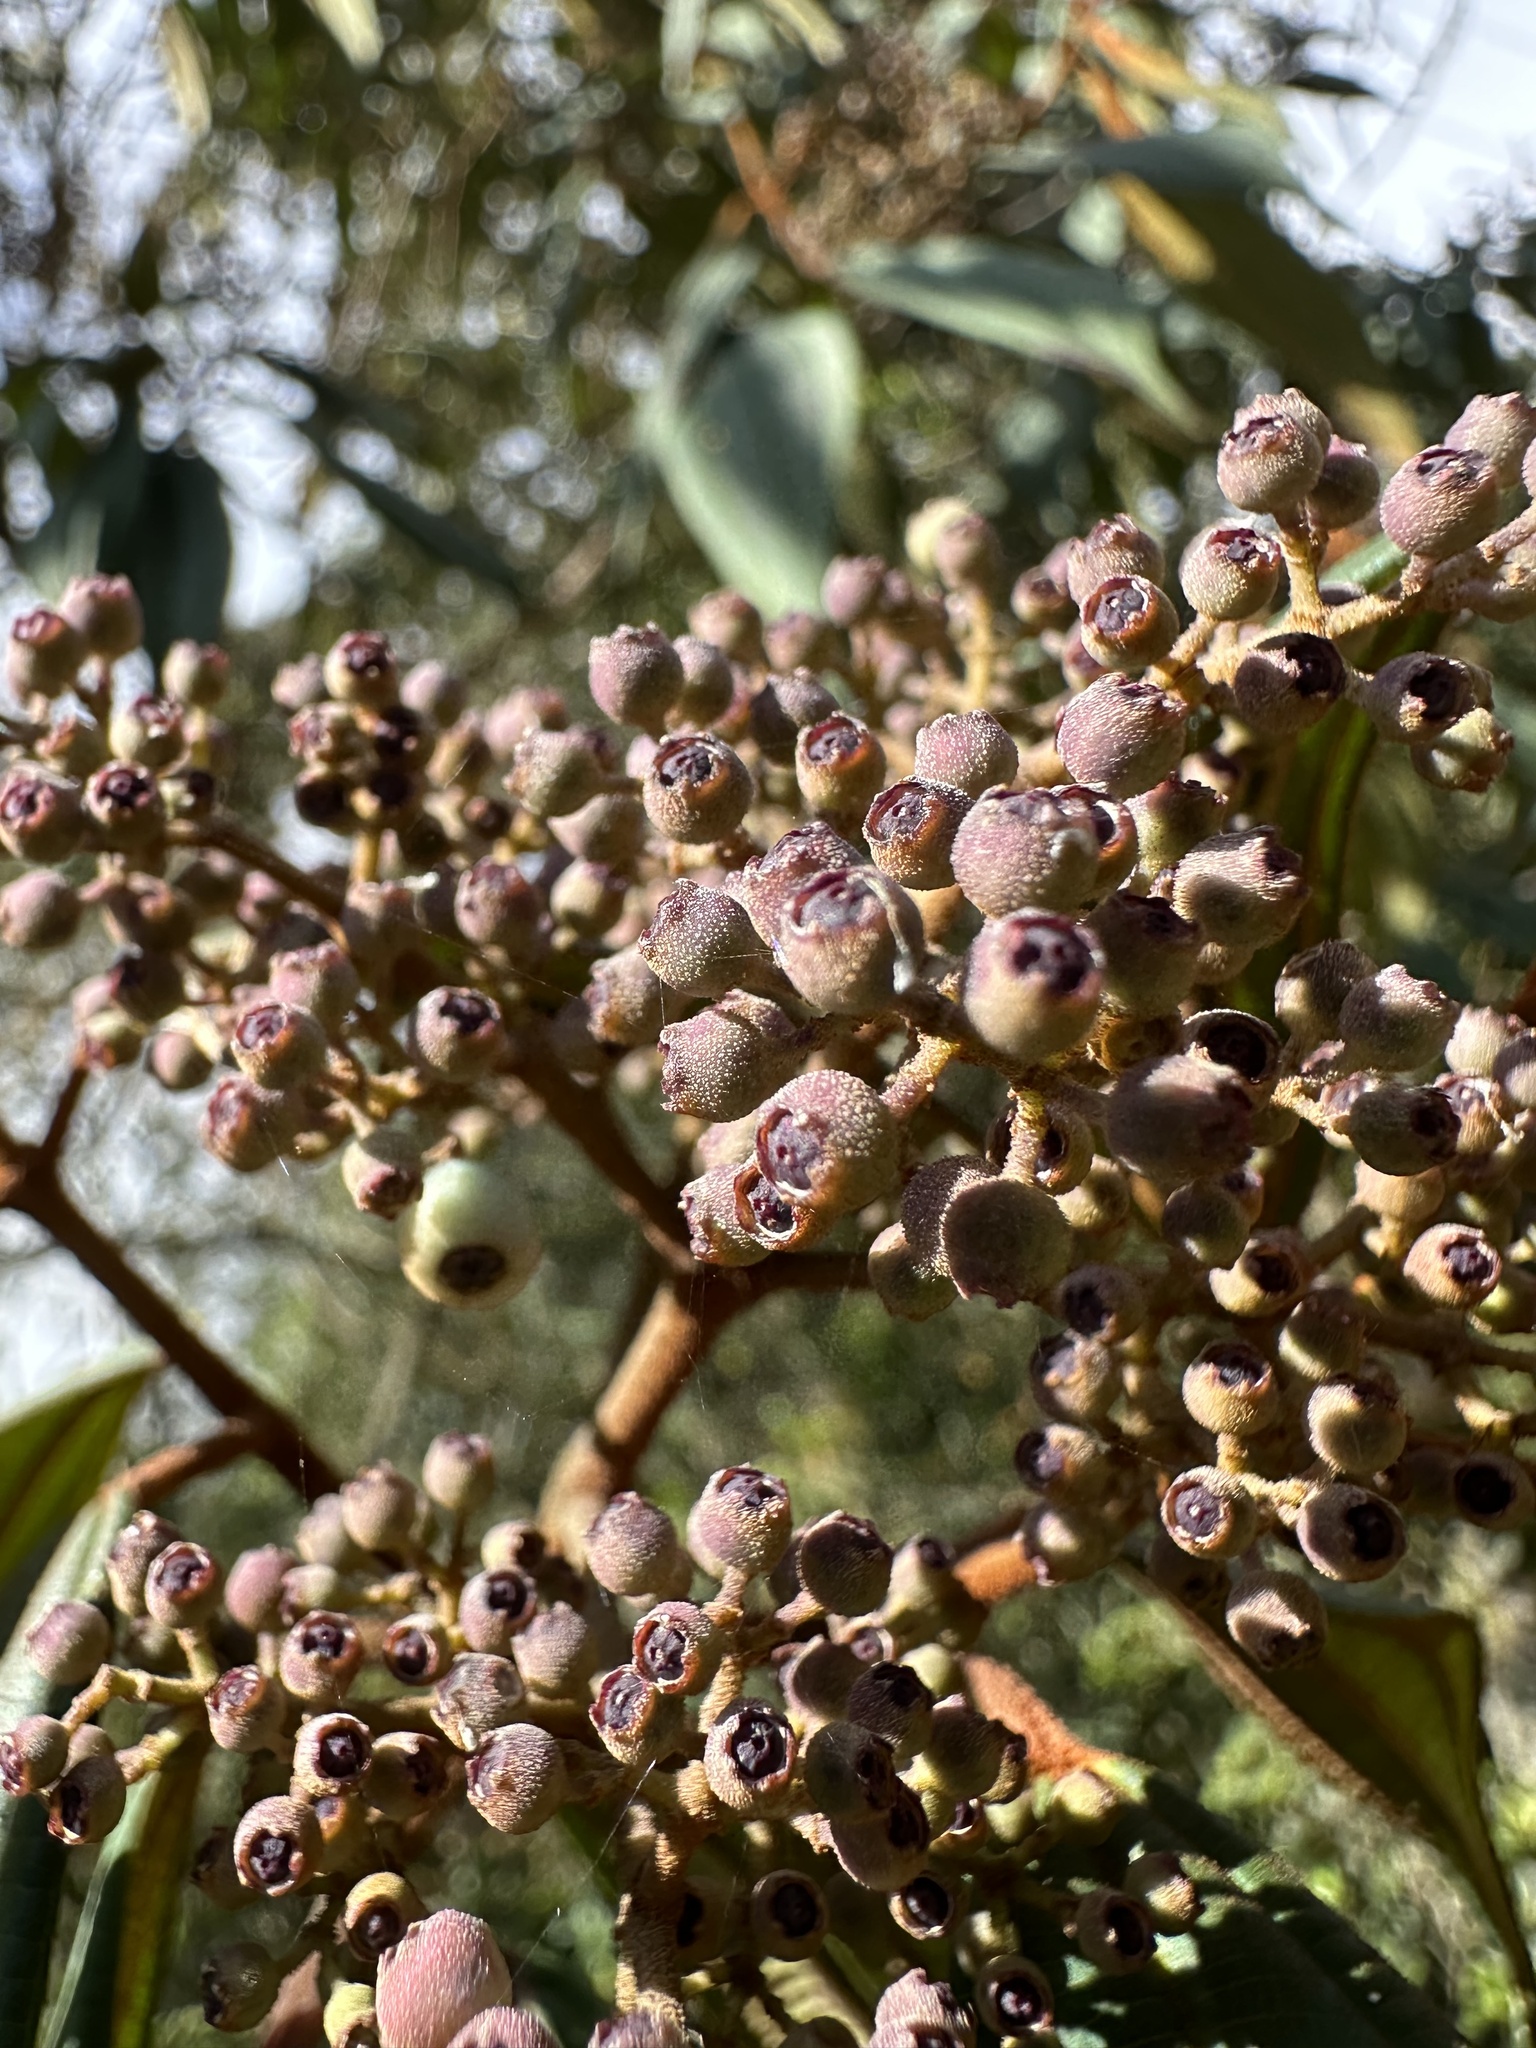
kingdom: Plantae
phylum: Tracheophyta
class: Magnoliopsida
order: Myrtales
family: Melastomataceae
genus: Miconia
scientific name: Miconia miocarpa
